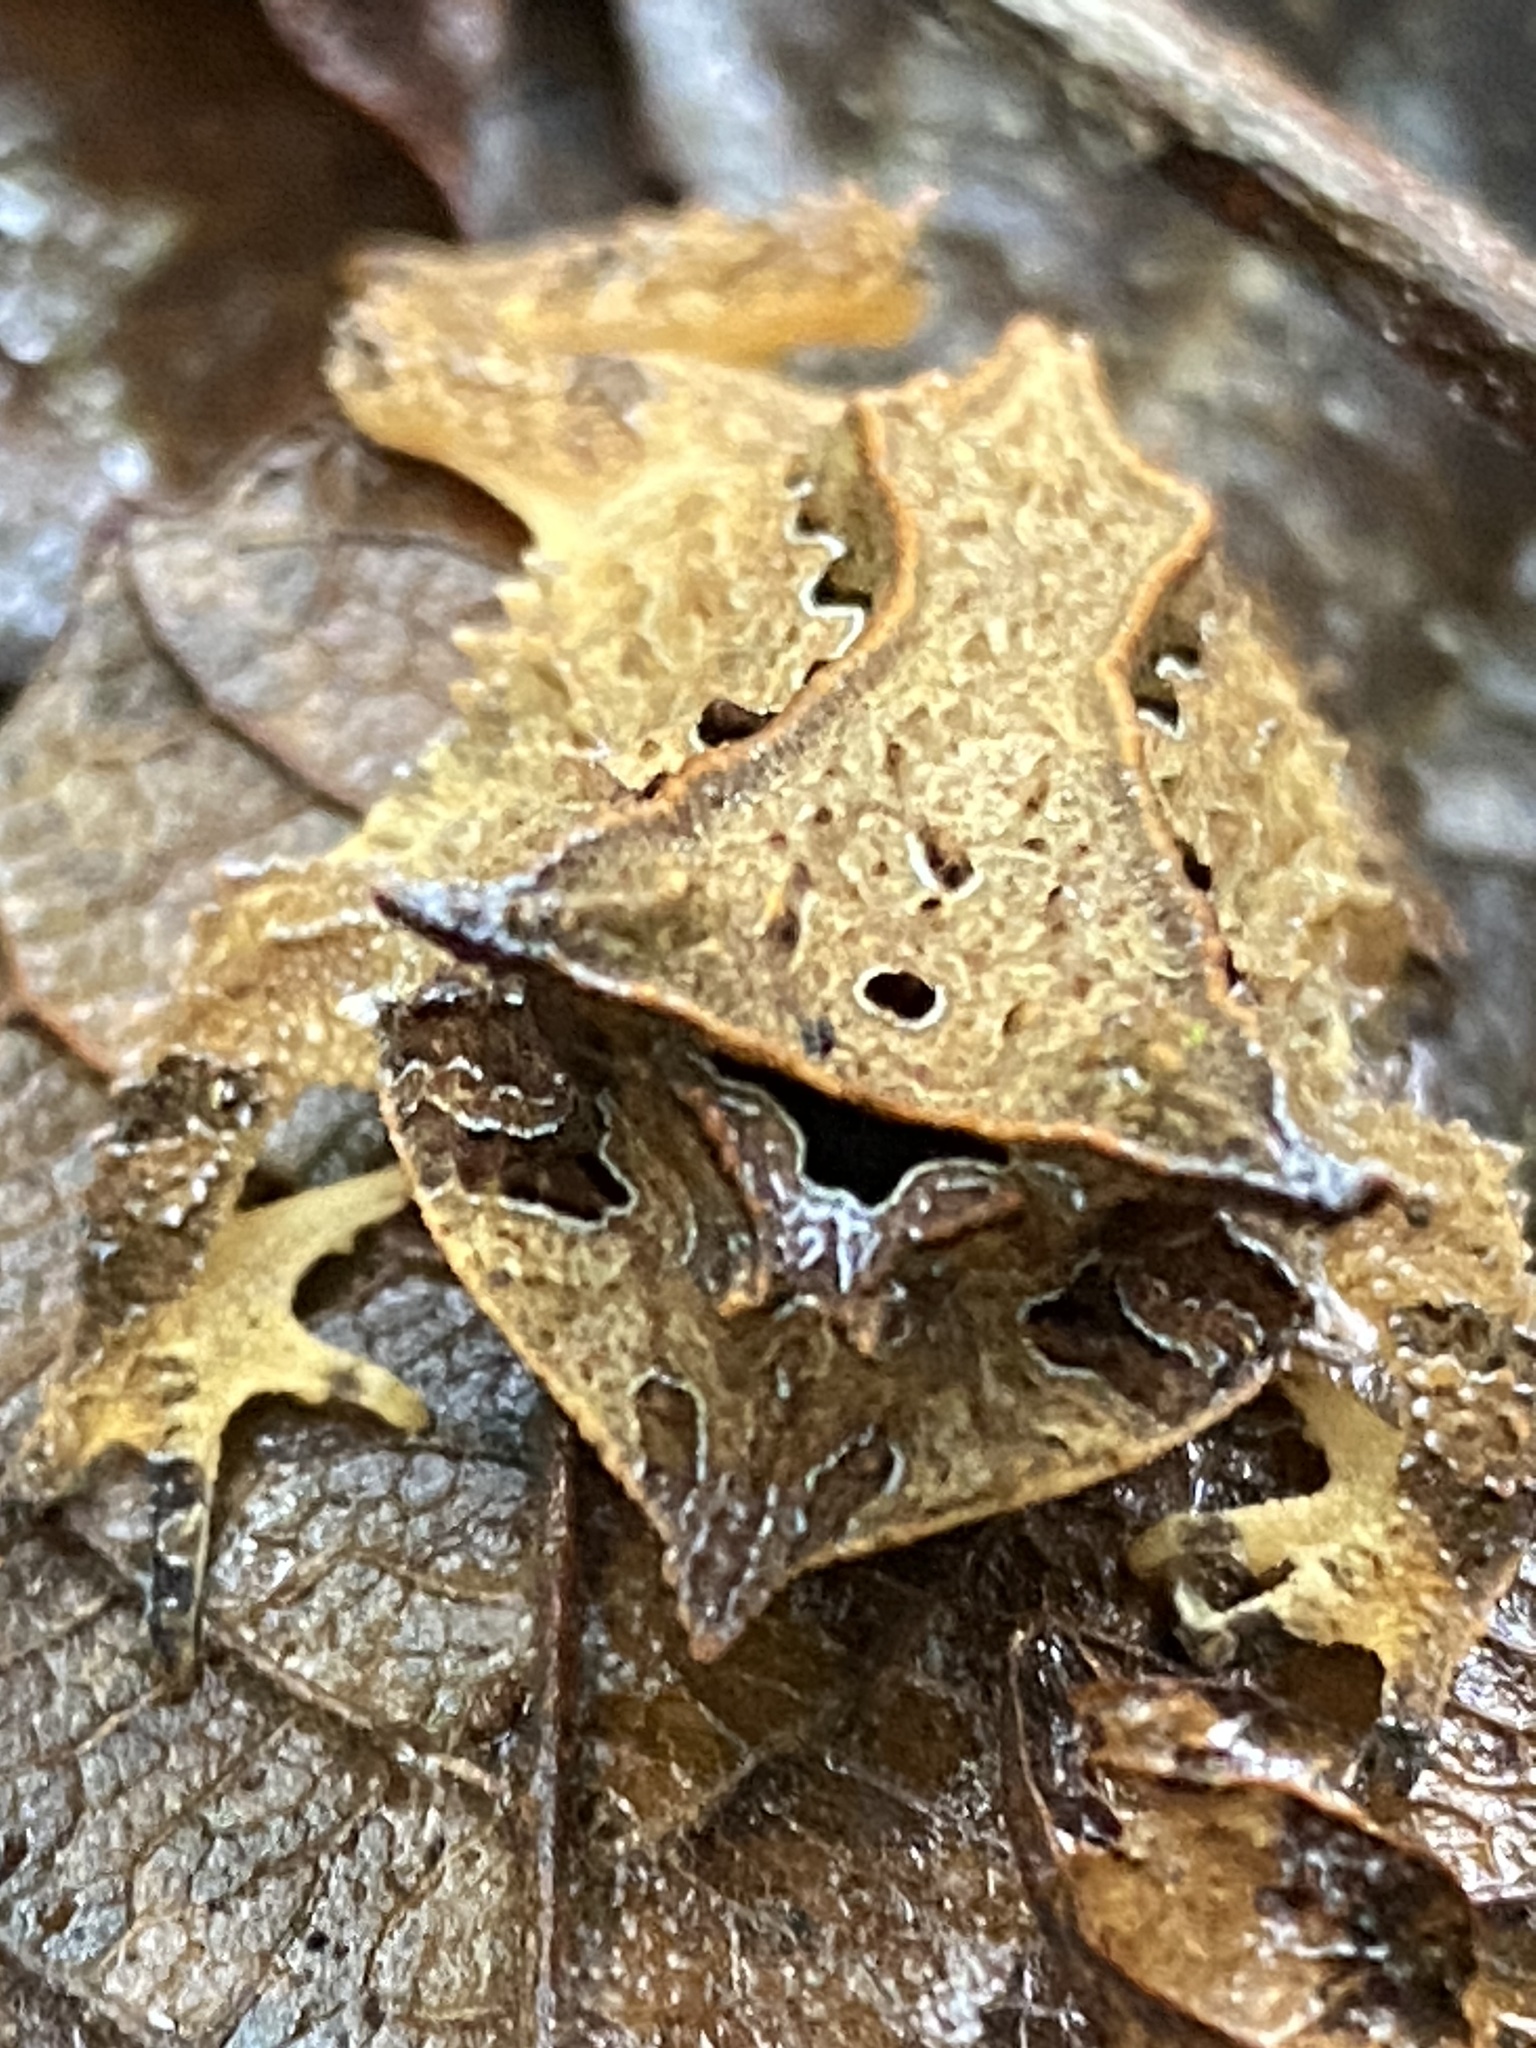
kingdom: Animalia
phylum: Chordata
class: Amphibia
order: Anura
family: Odontophrynidae
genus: Proceratophrys
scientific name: Proceratophrys appendiculata
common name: Guenther's horned frog
